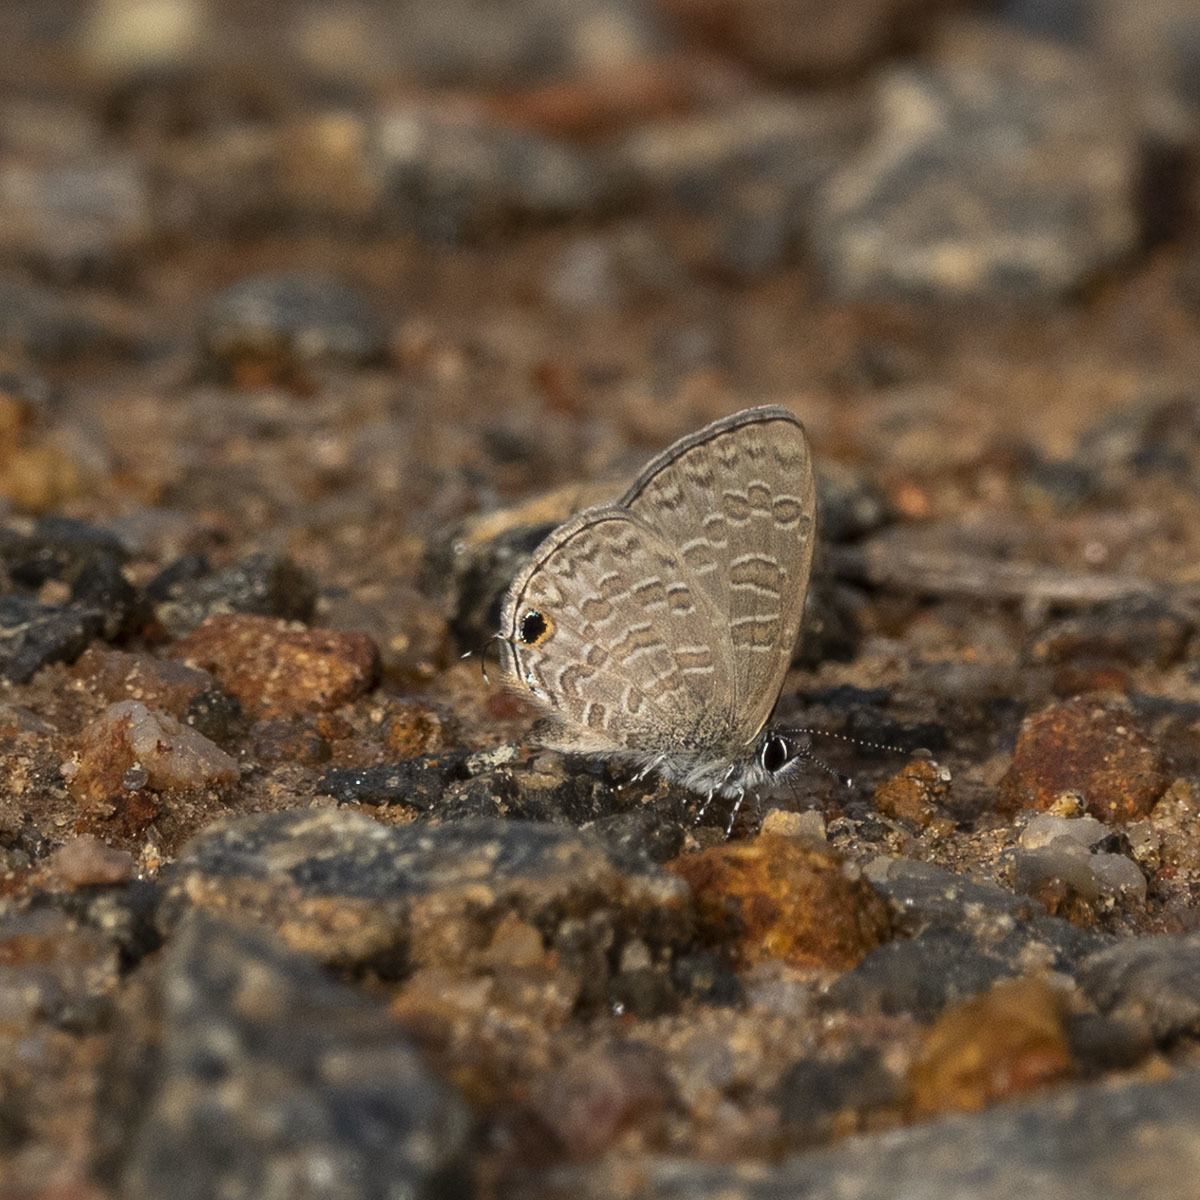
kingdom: Animalia
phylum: Arthropoda
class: Insecta
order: Lepidoptera
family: Lycaenidae
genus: Prosotas
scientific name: Prosotas nora
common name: Common line blue
